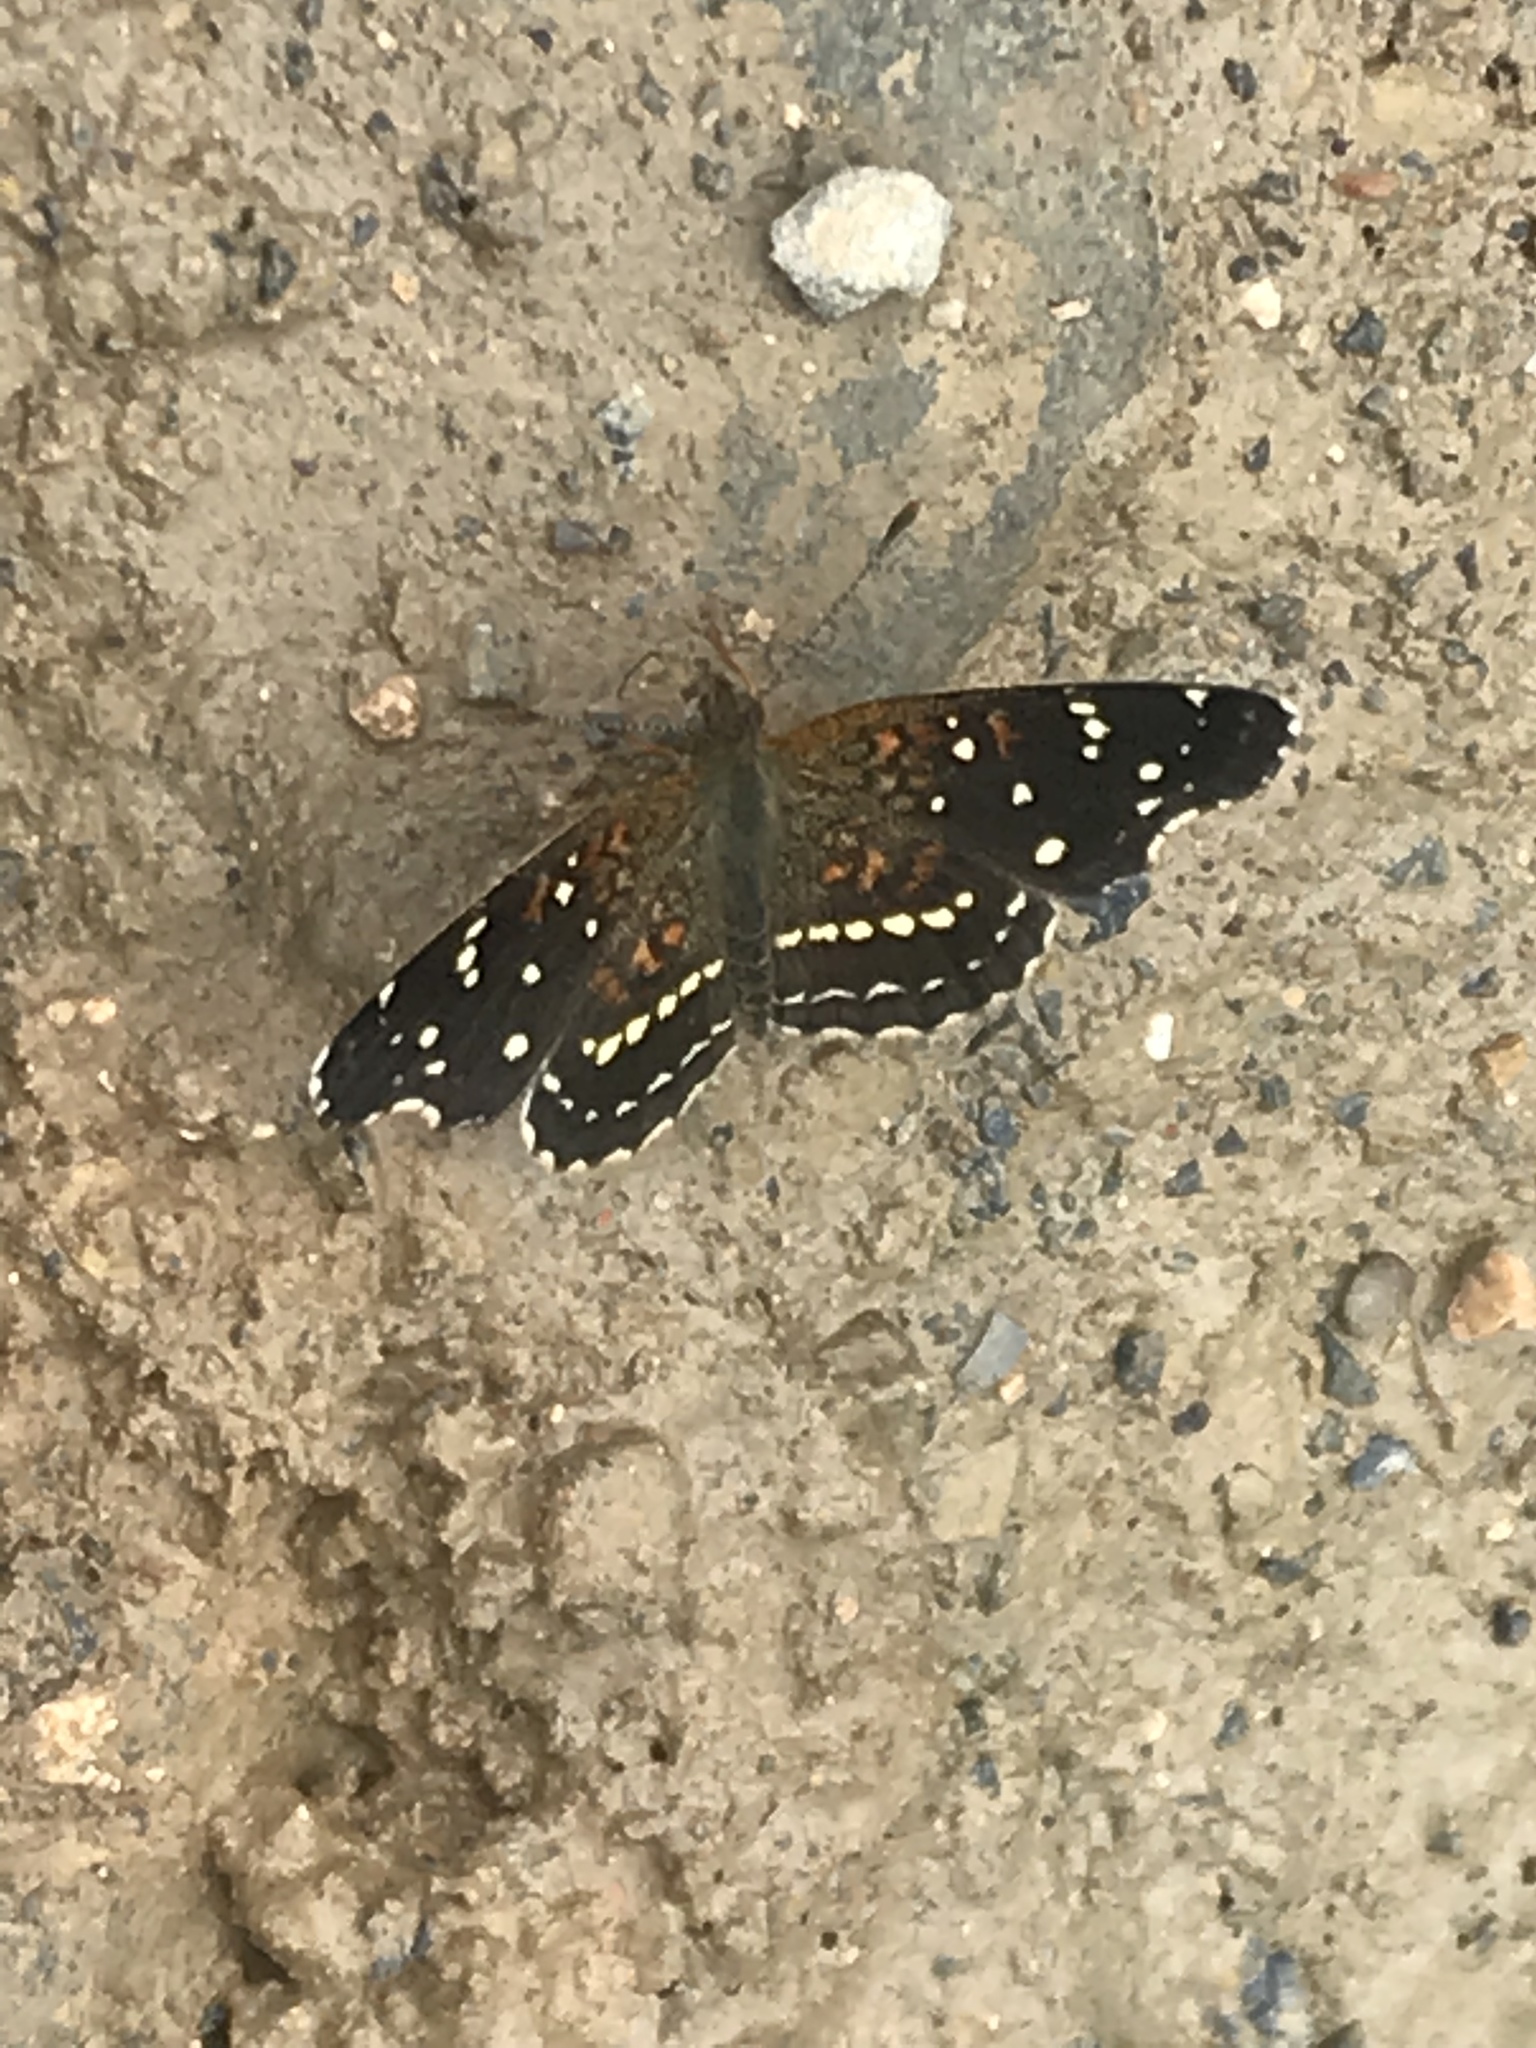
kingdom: Animalia
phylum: Arthropoda
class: Insecta
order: Lepidoptera
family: Nymphalidae
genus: Anthanassa
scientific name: Anthanassa texana
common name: Texan crescent
